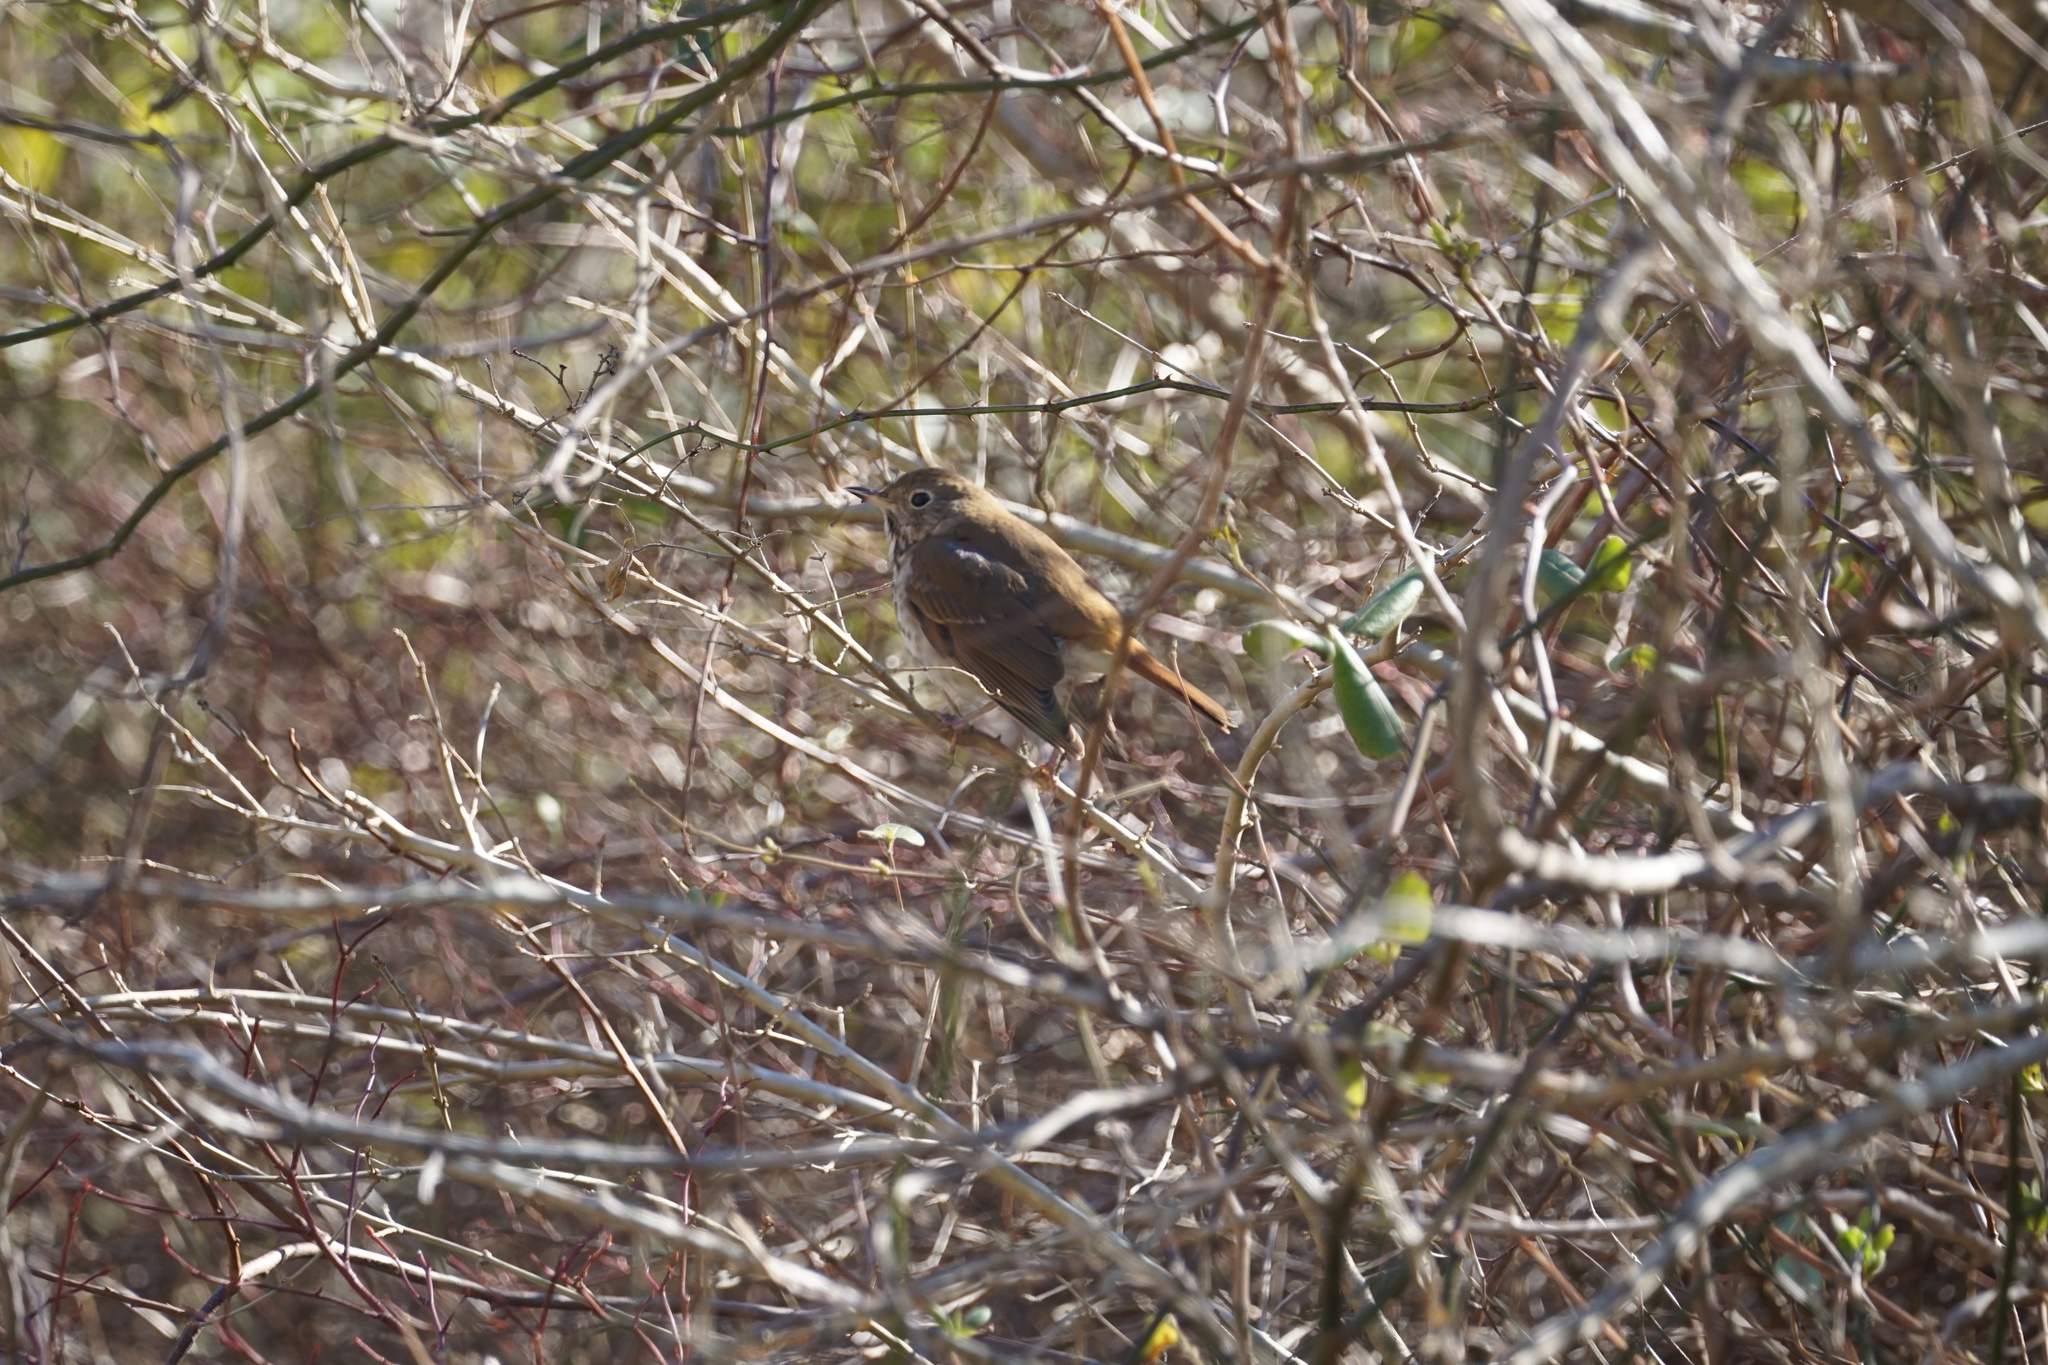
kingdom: Animalia
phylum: Chordata
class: Aves
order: Passeriformes
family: Turdidae
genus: Catharus
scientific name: Catharus guttatus
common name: Hermit thrush
